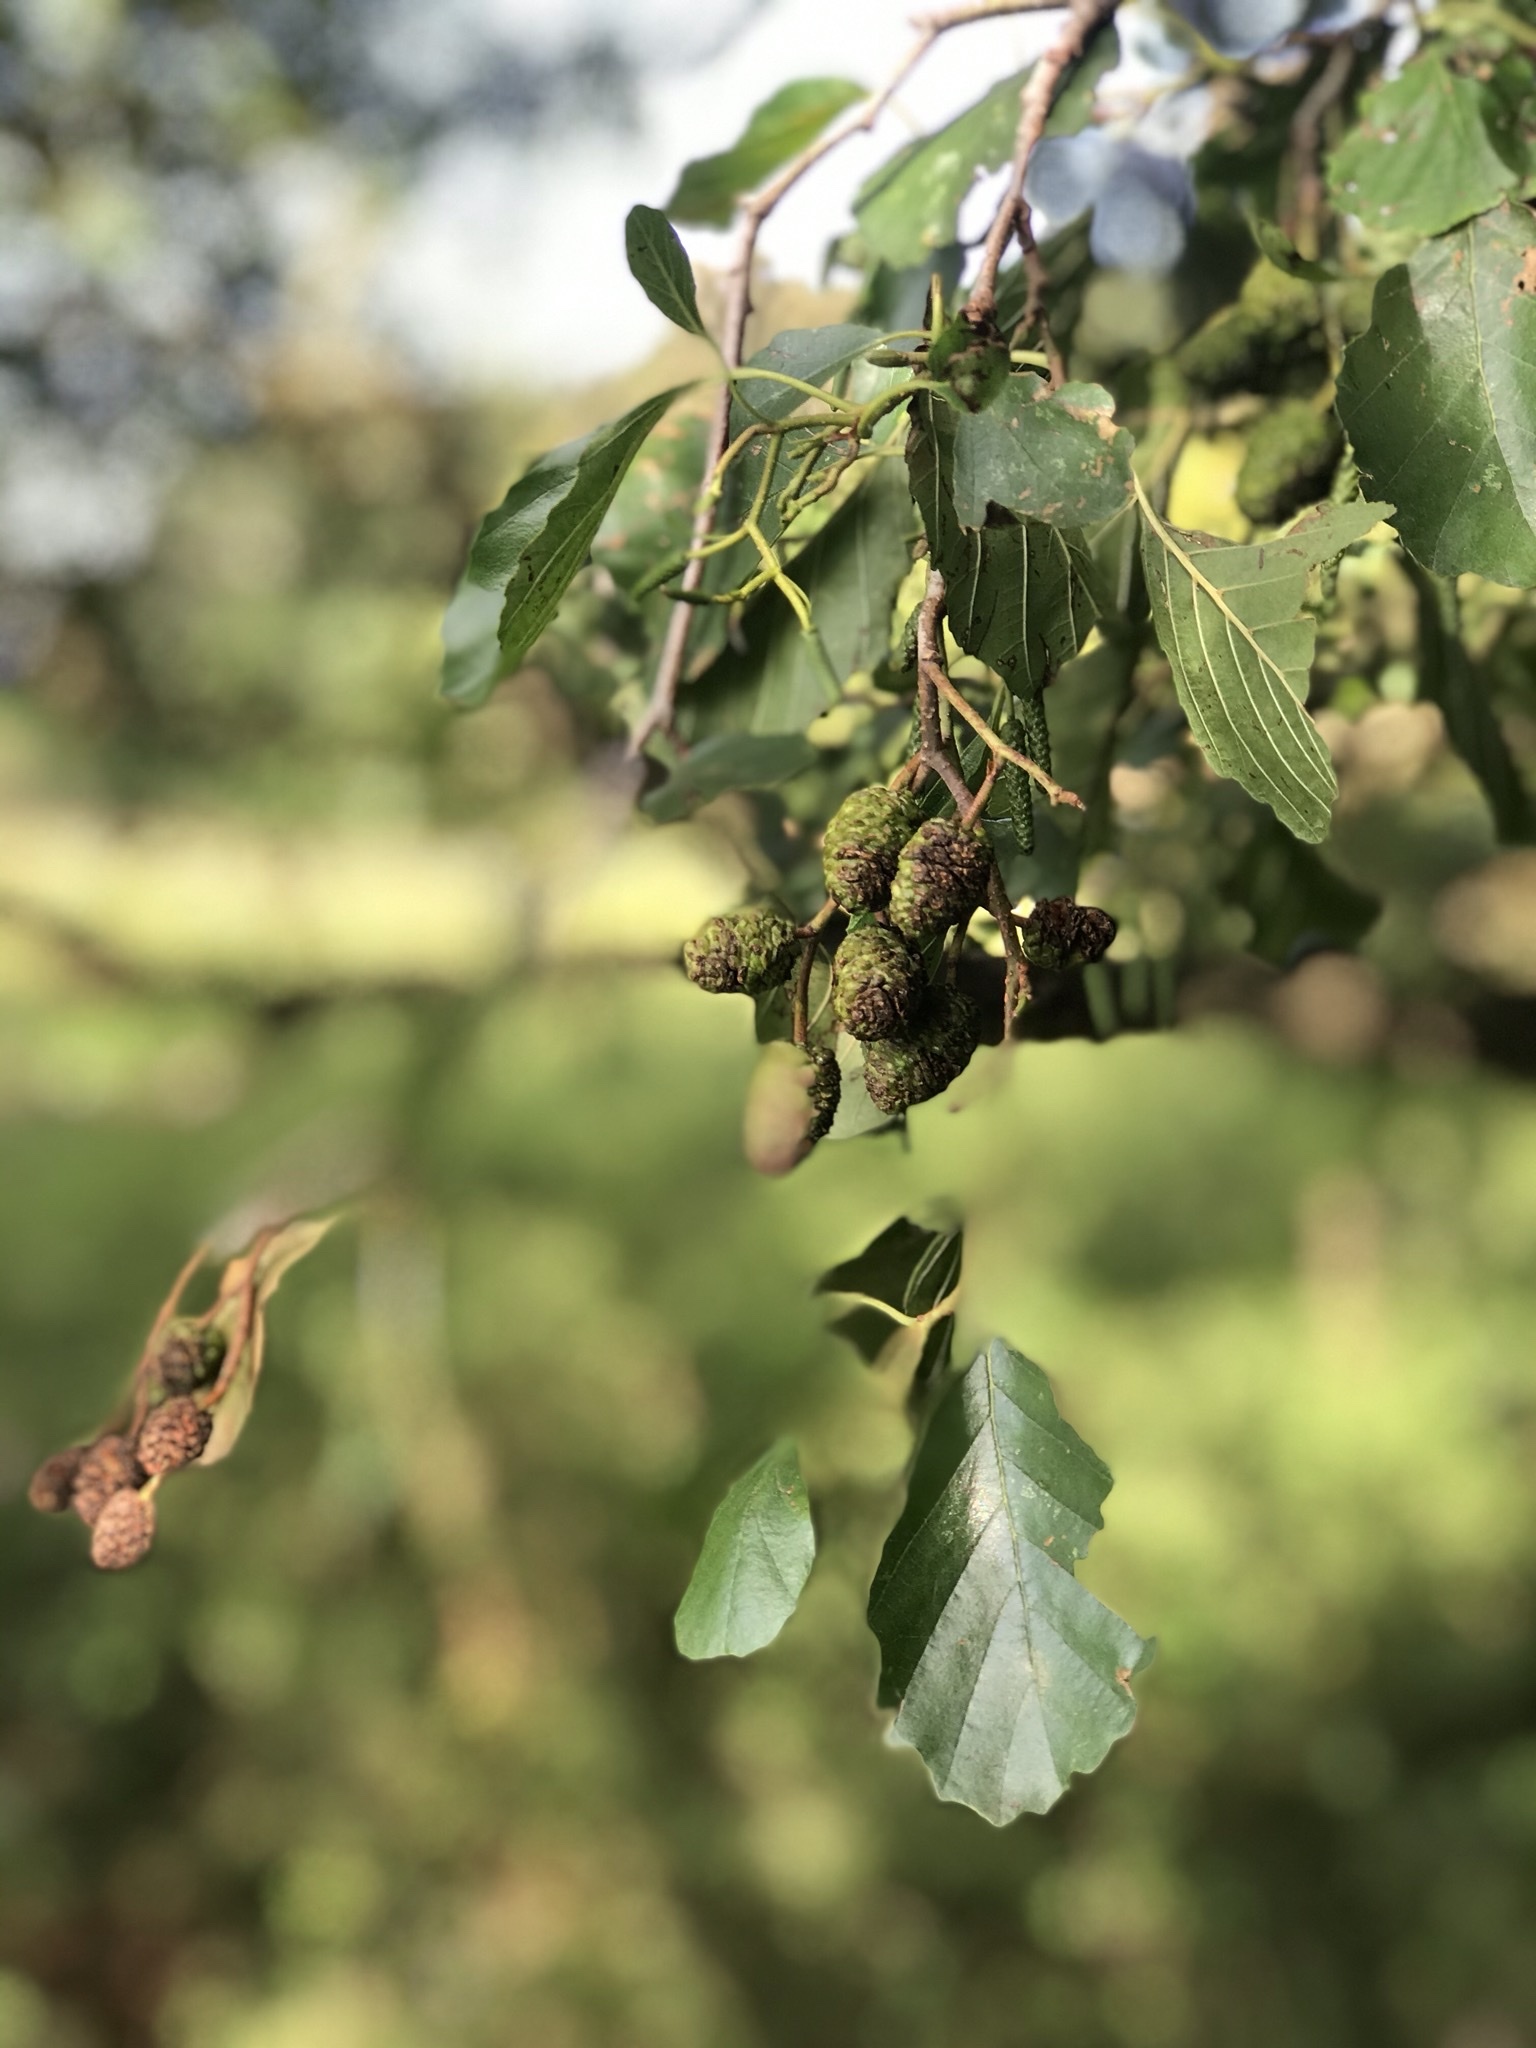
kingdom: Plantae
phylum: Tracheophyta
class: Magnoliopsida
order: Fagales
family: Betulaceae
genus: Alnus
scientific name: Alnus glutinosa
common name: Black alder
